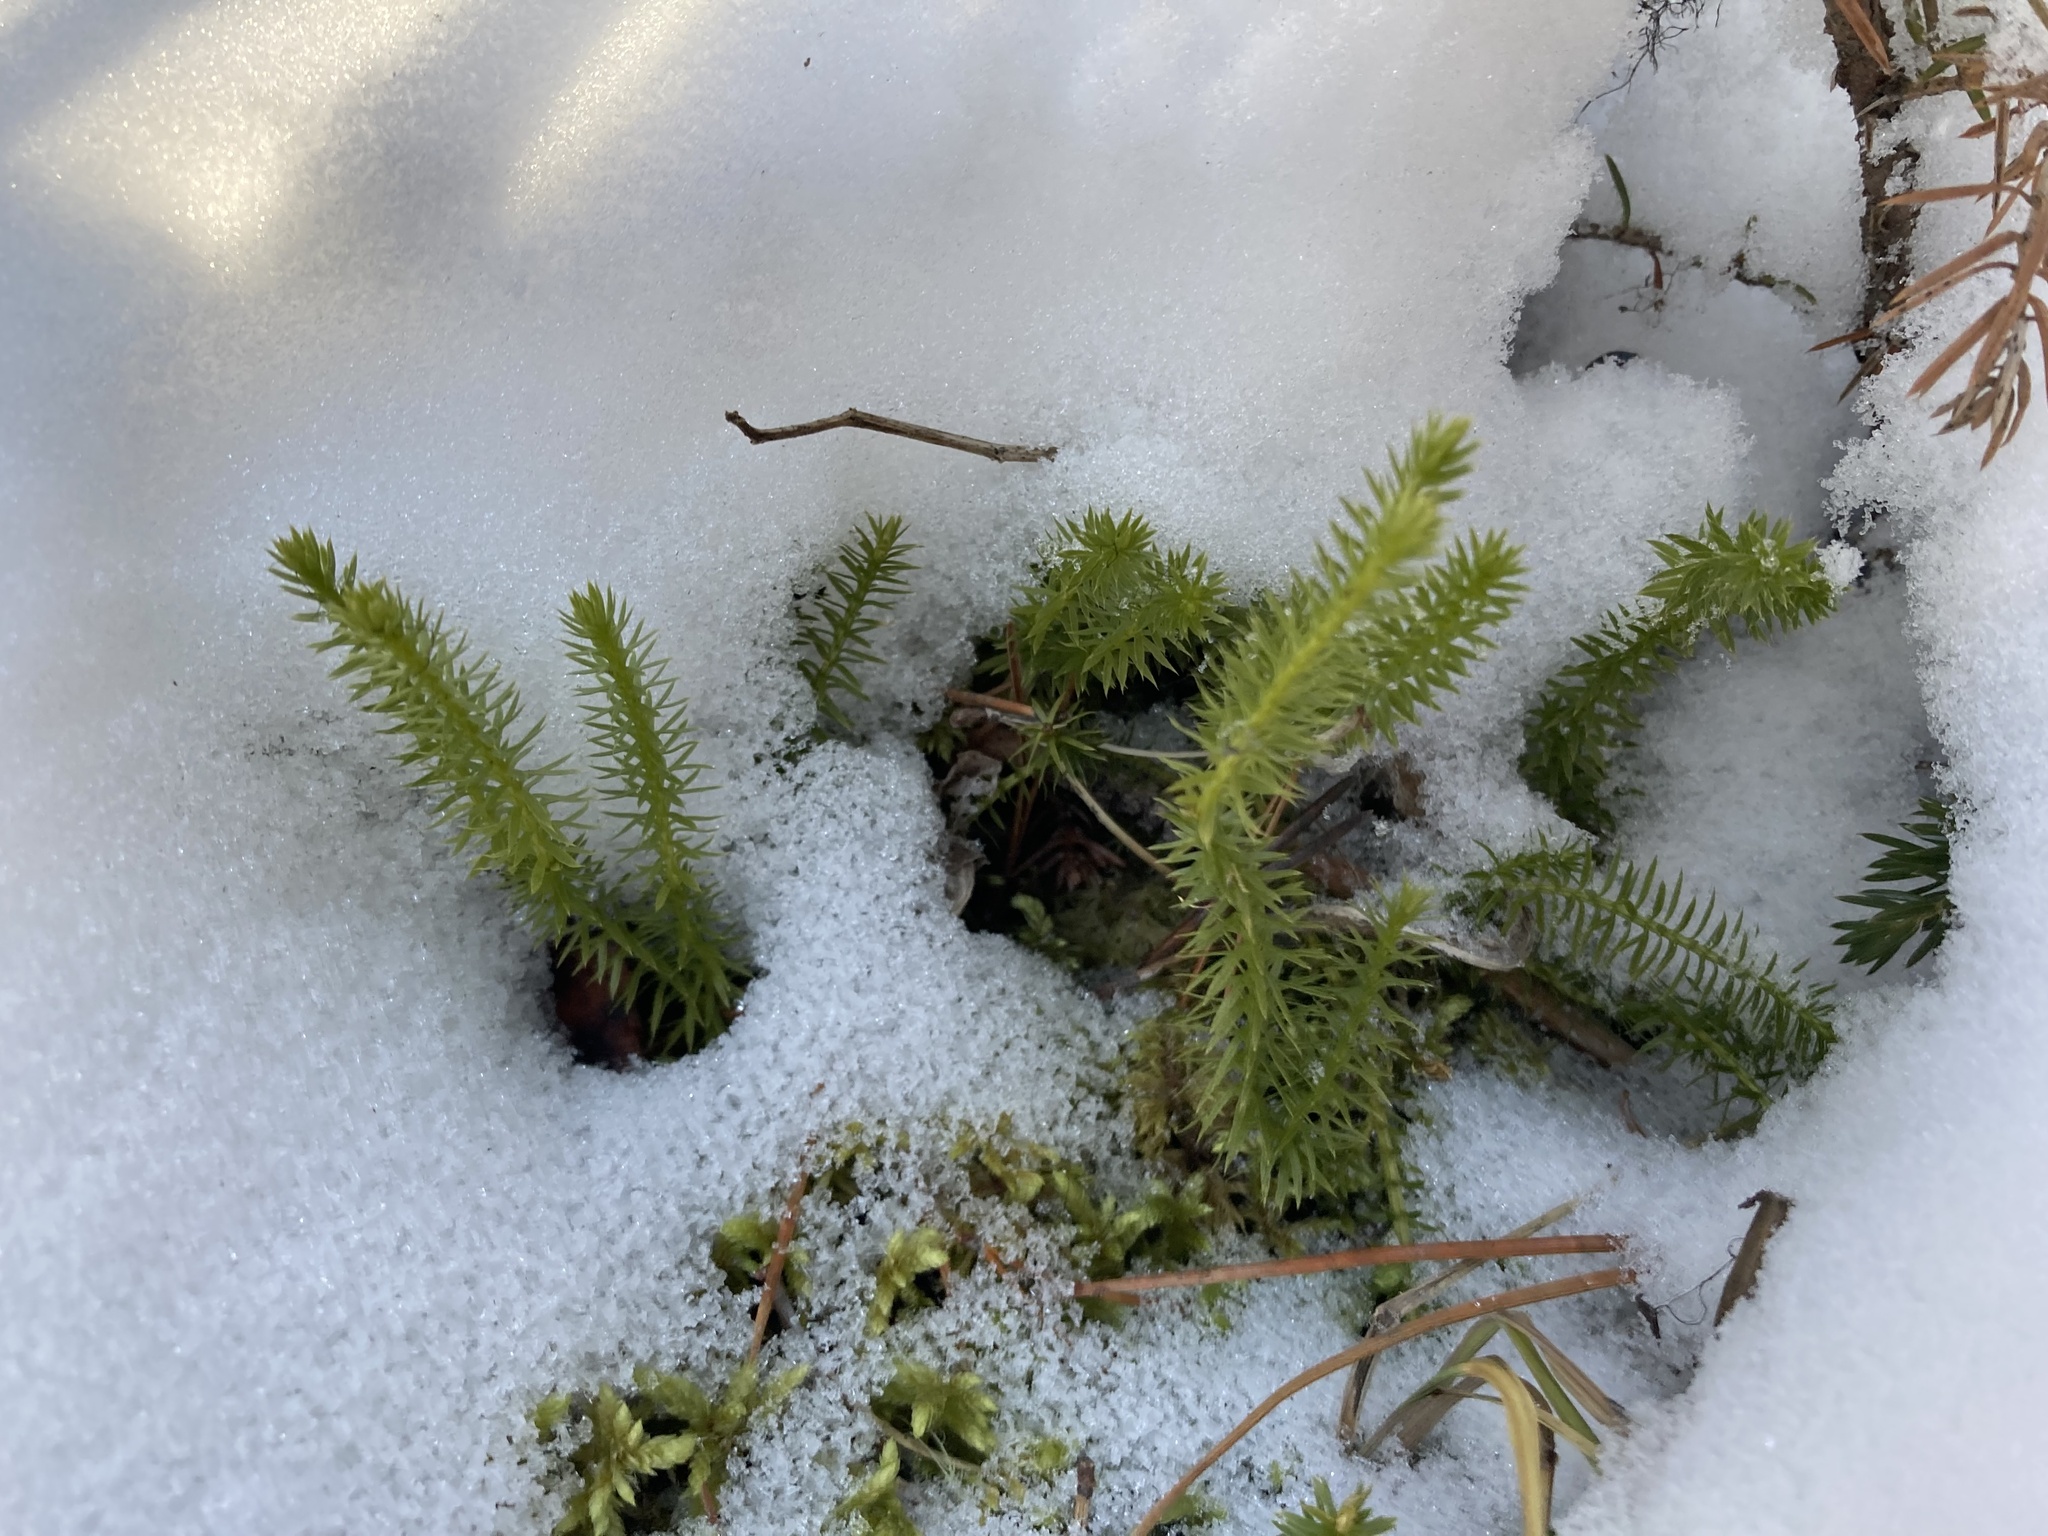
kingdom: Plantae
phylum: Tracheophyta
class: Lycopodiopsida
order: Lycopodiales
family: Lycopodiaceae
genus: Spinulum
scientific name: Spinulum annotinum
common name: Interrupted club-moss
